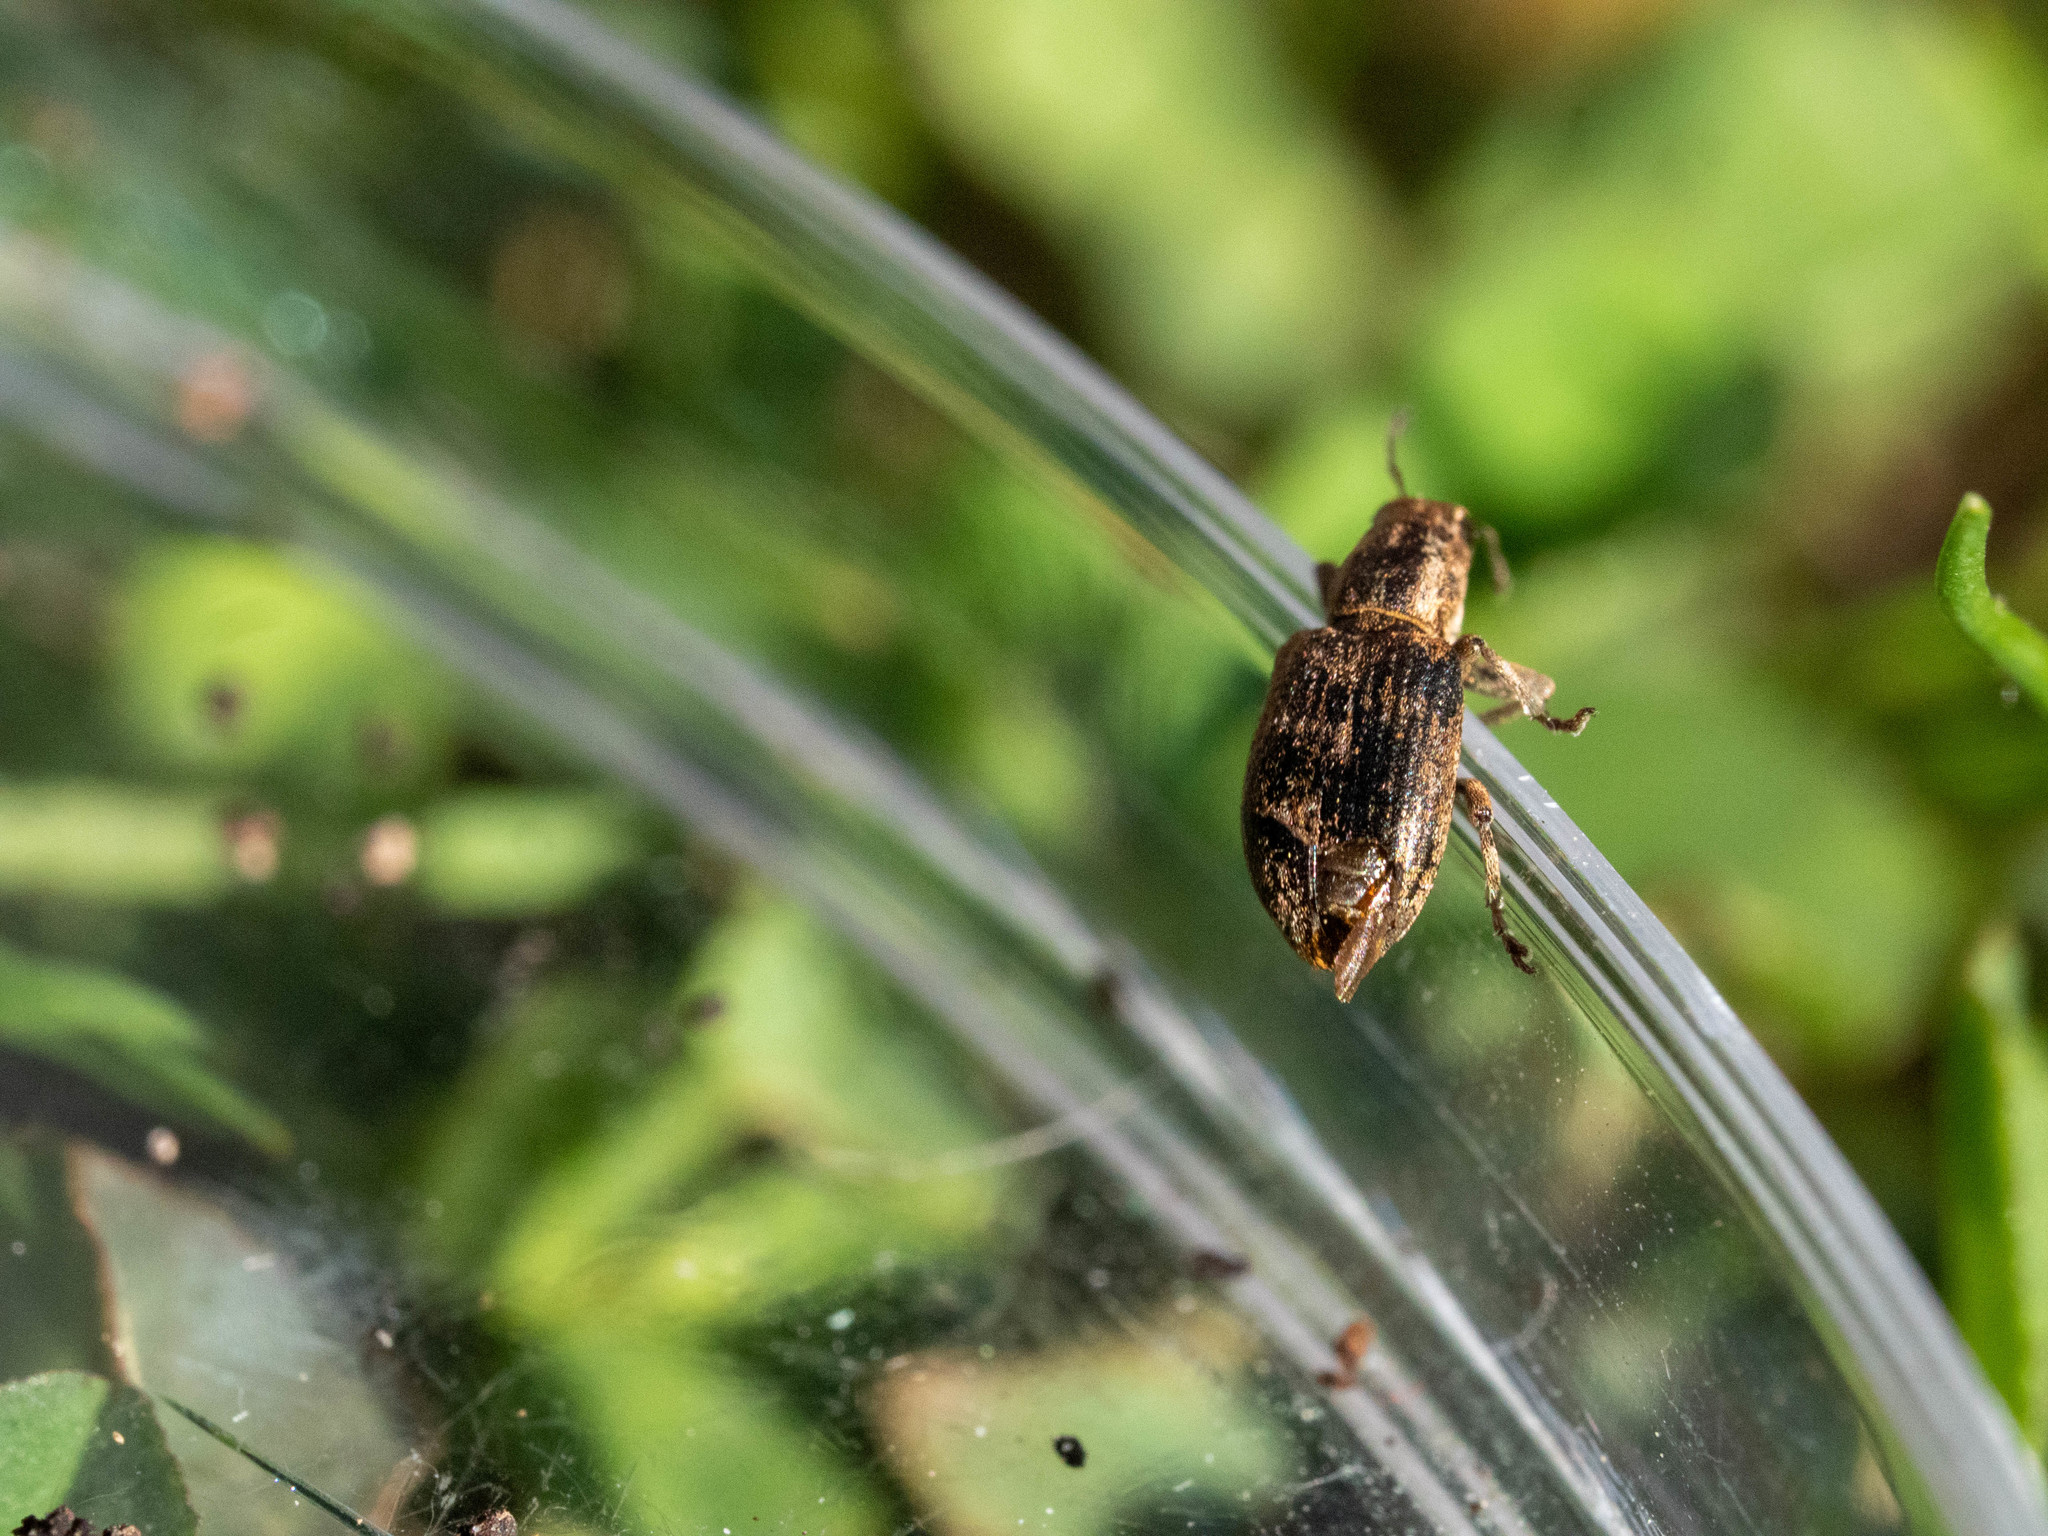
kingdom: Animalia
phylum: Arthropoda
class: Insecta
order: Coleoptera
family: Curculionidae
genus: Sitona
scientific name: Sitona obsoletus
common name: Weevil
